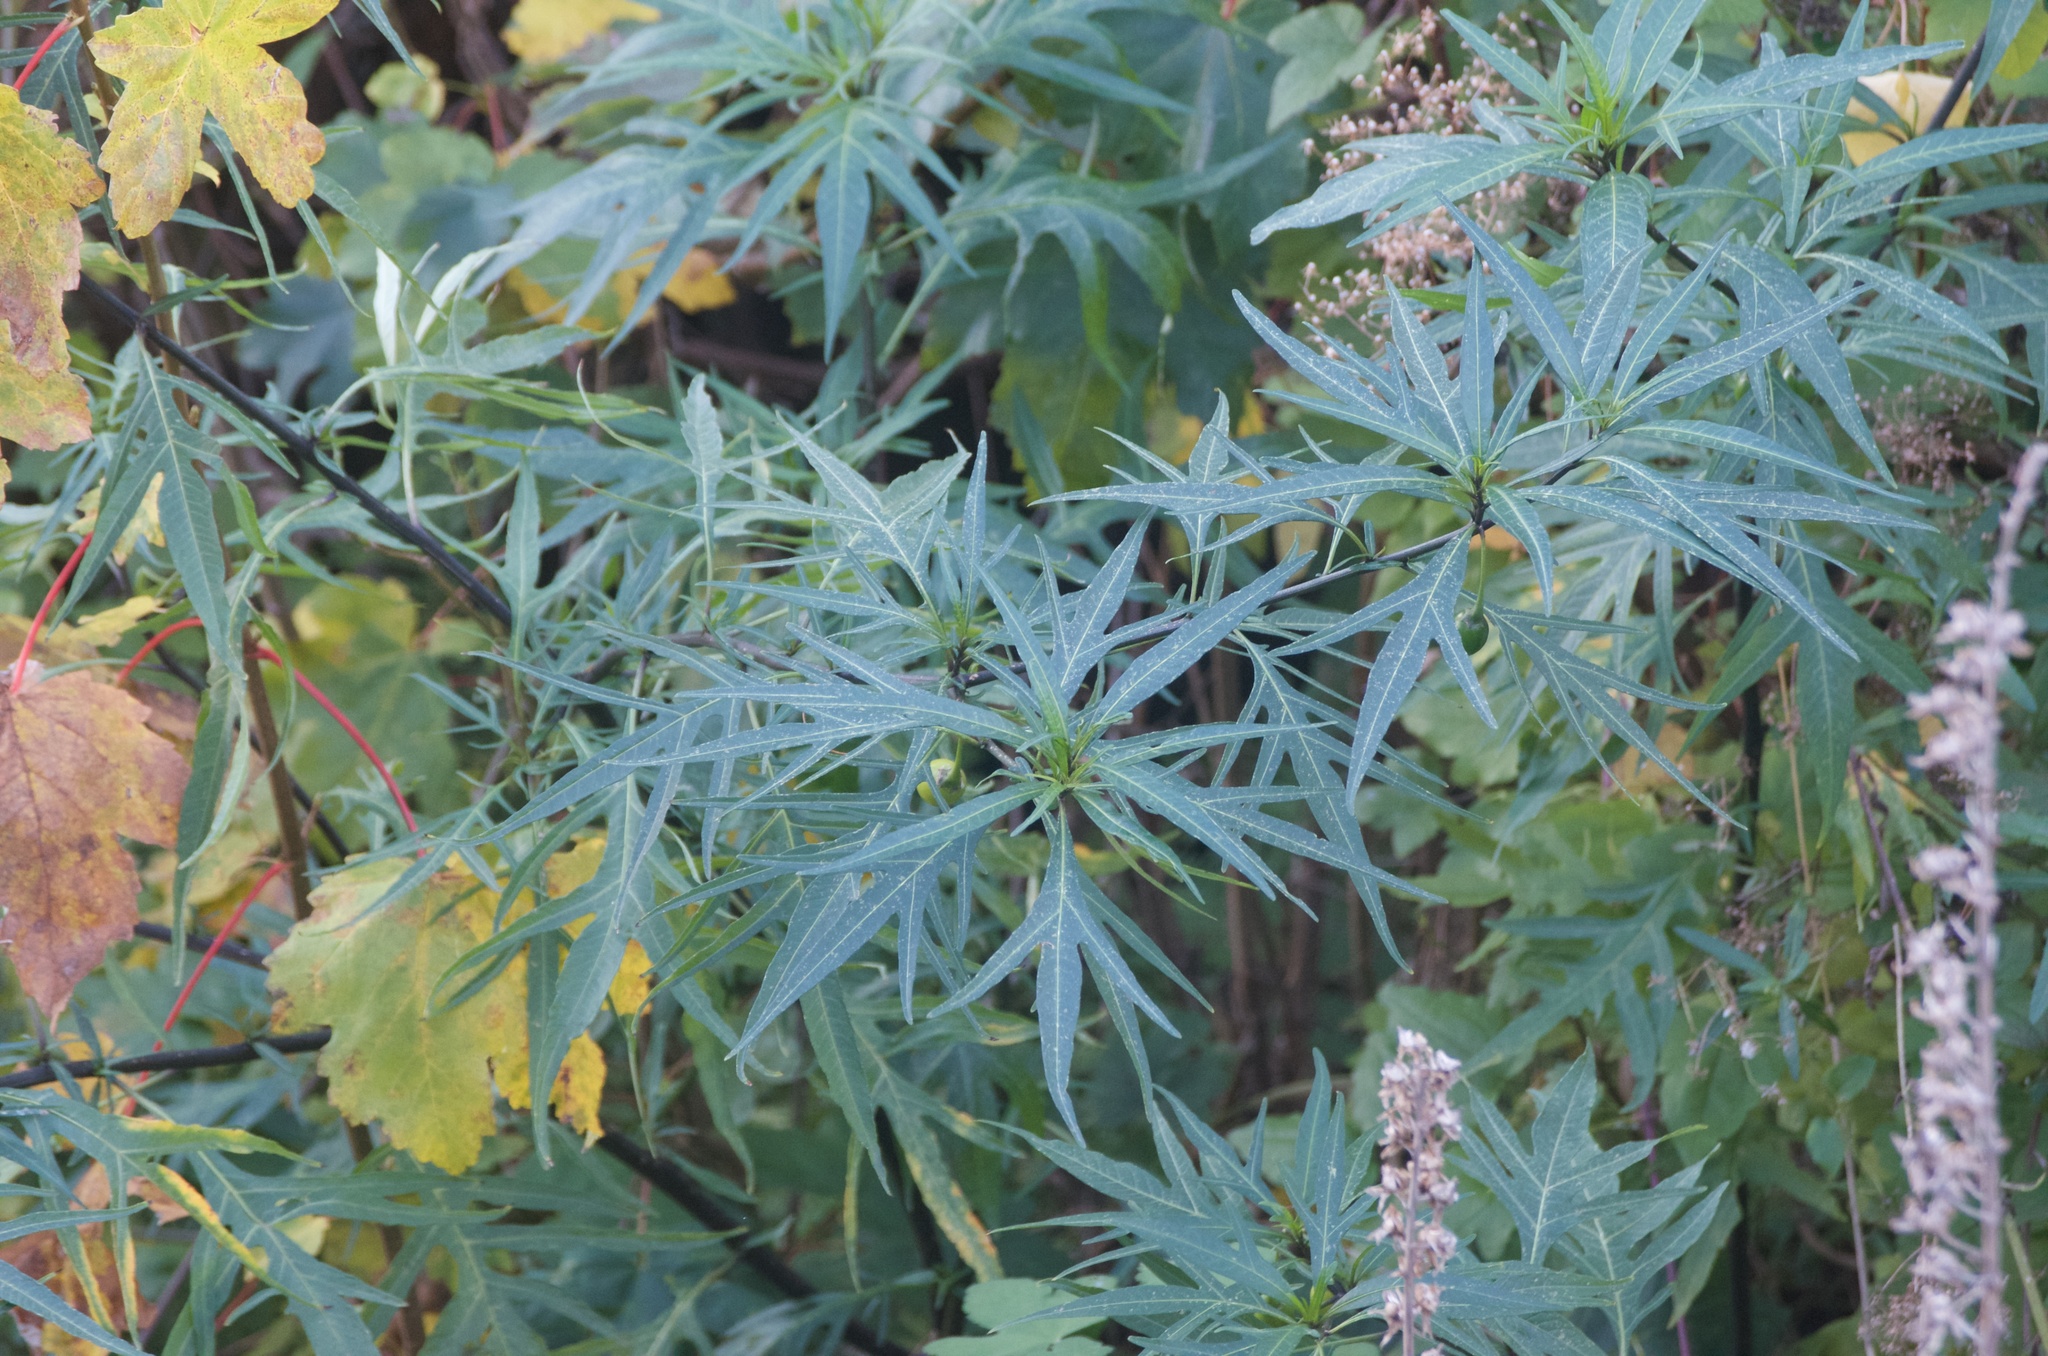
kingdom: Plantae
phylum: Tracheophyta
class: Magnoliopsida
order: Solanales
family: Solanaceae
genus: Solanum
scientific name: Solanum laciniatum
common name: Kangaroo-apple
